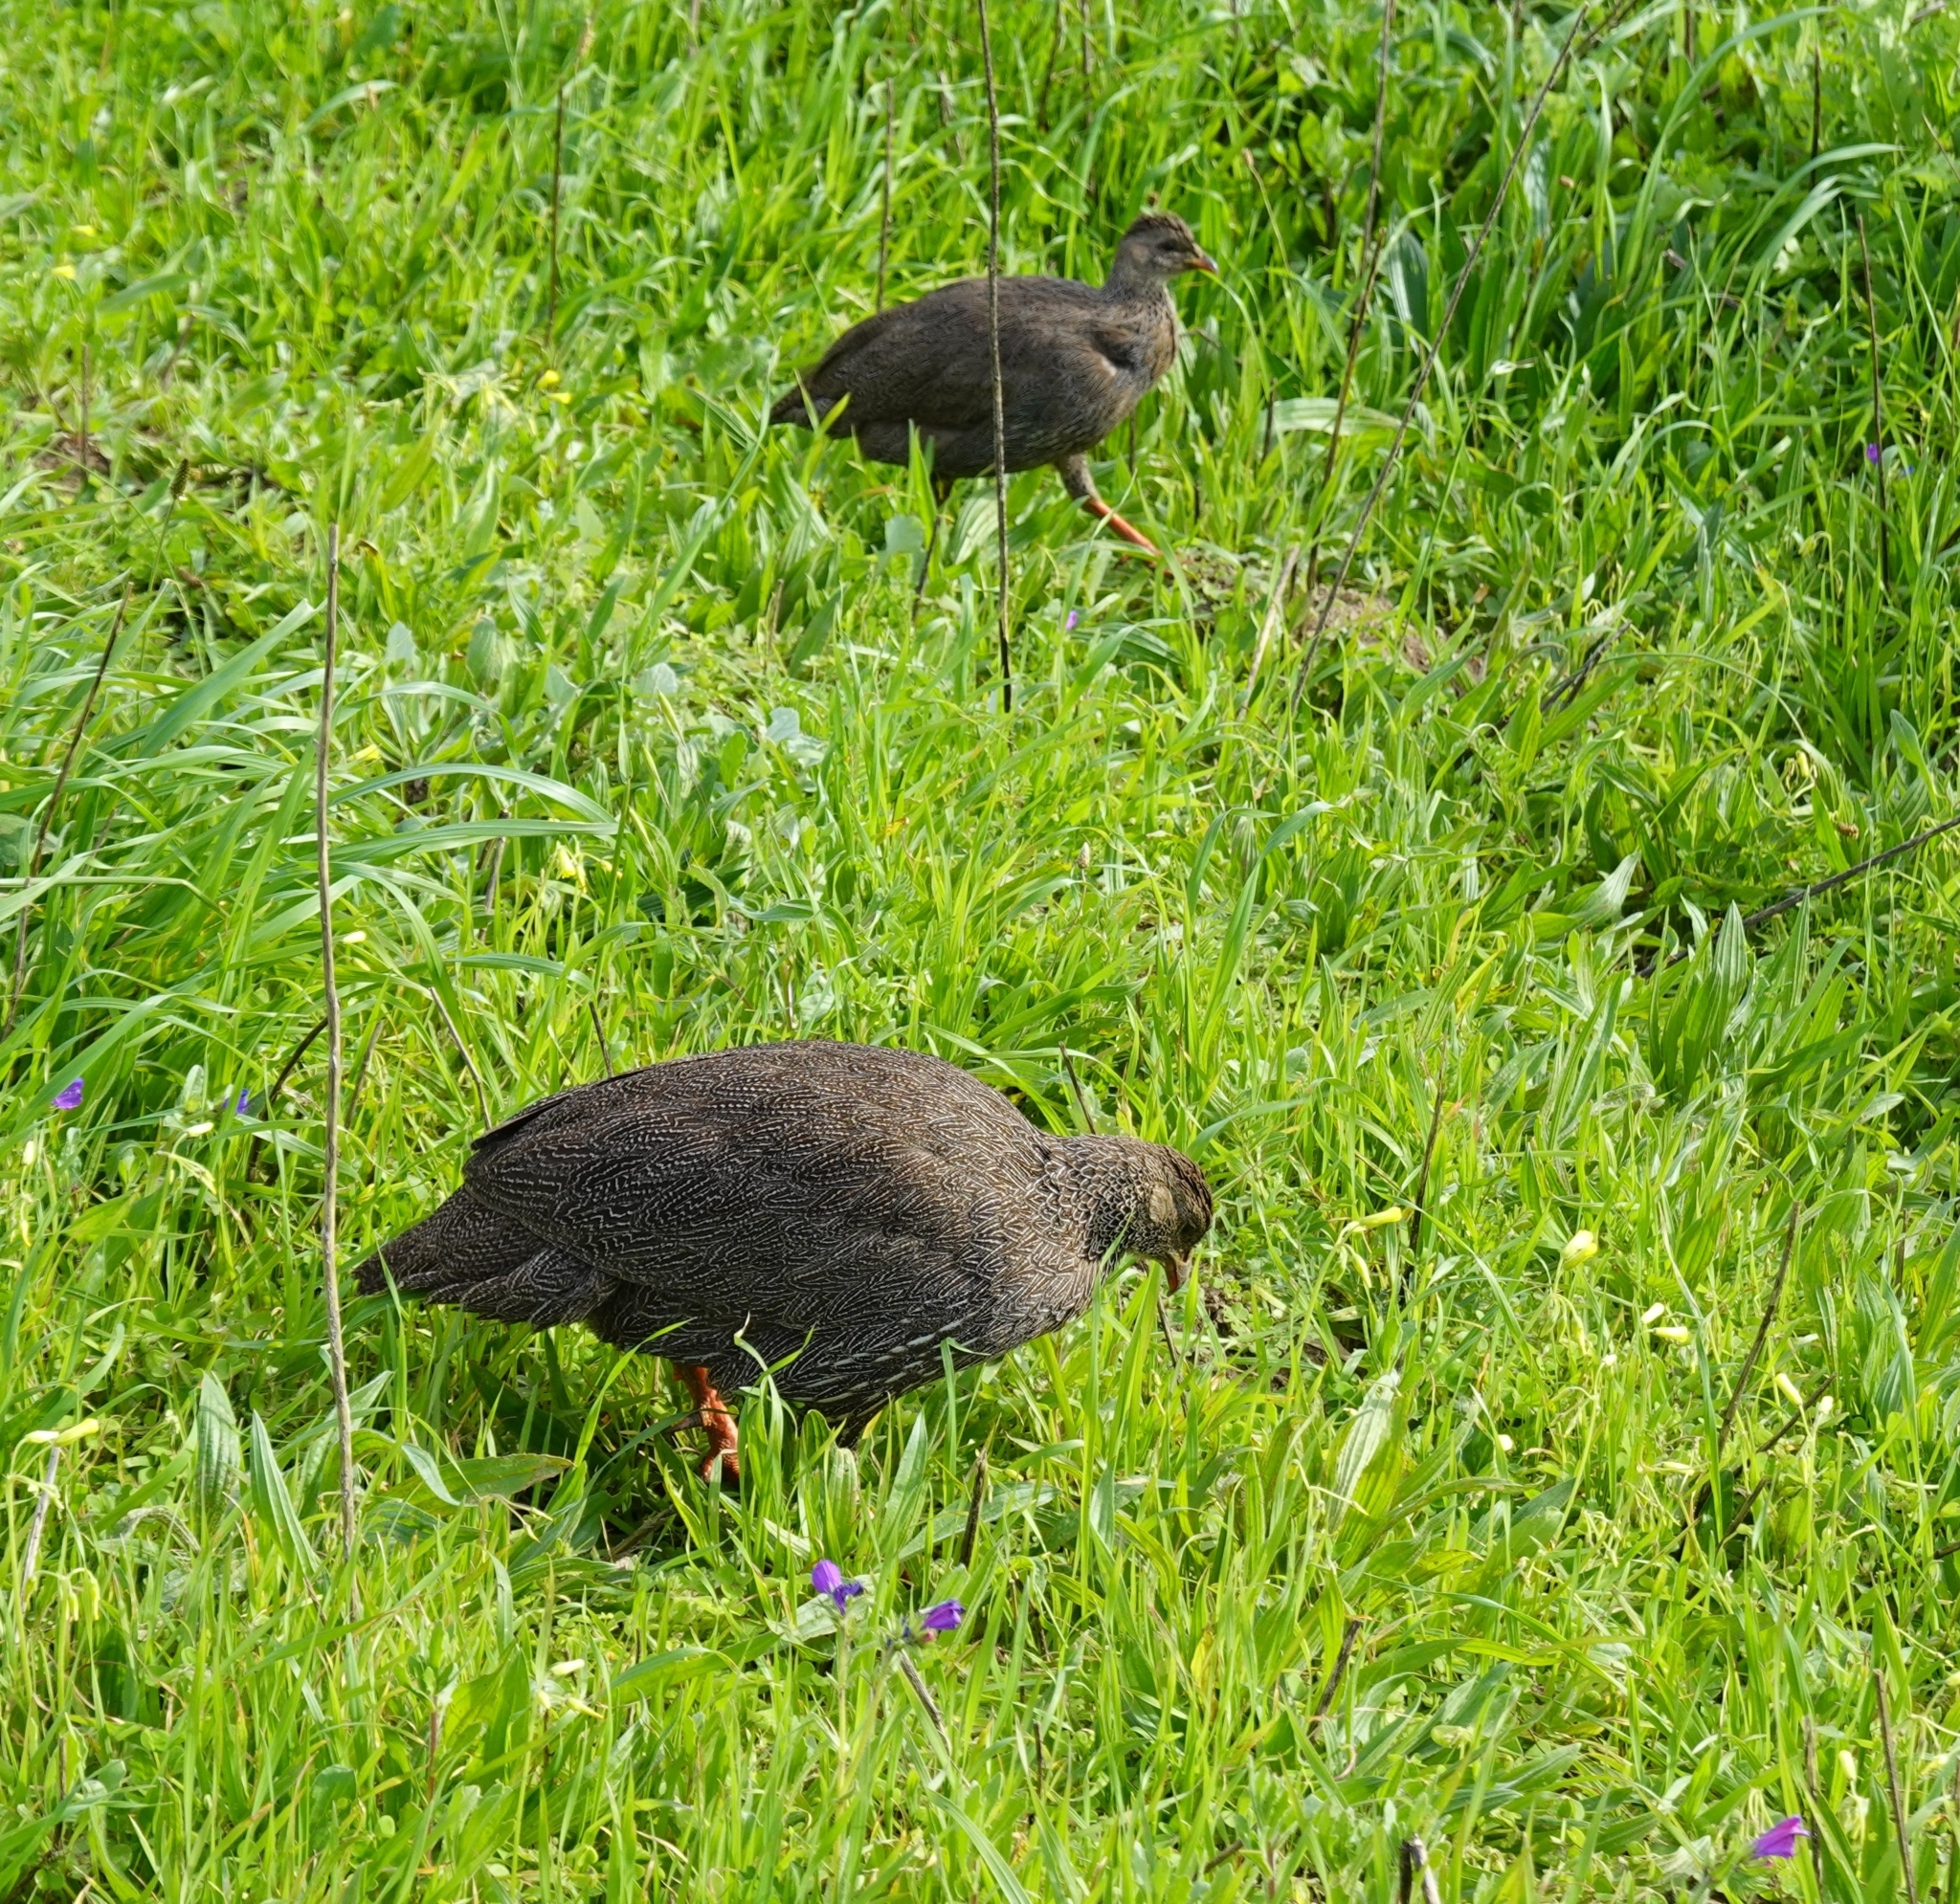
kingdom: Animalia
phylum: Chordata
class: Aves
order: Galliformes
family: Phasianidae
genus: Pternistis
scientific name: Pternistis capensis
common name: Cape spurfowl
